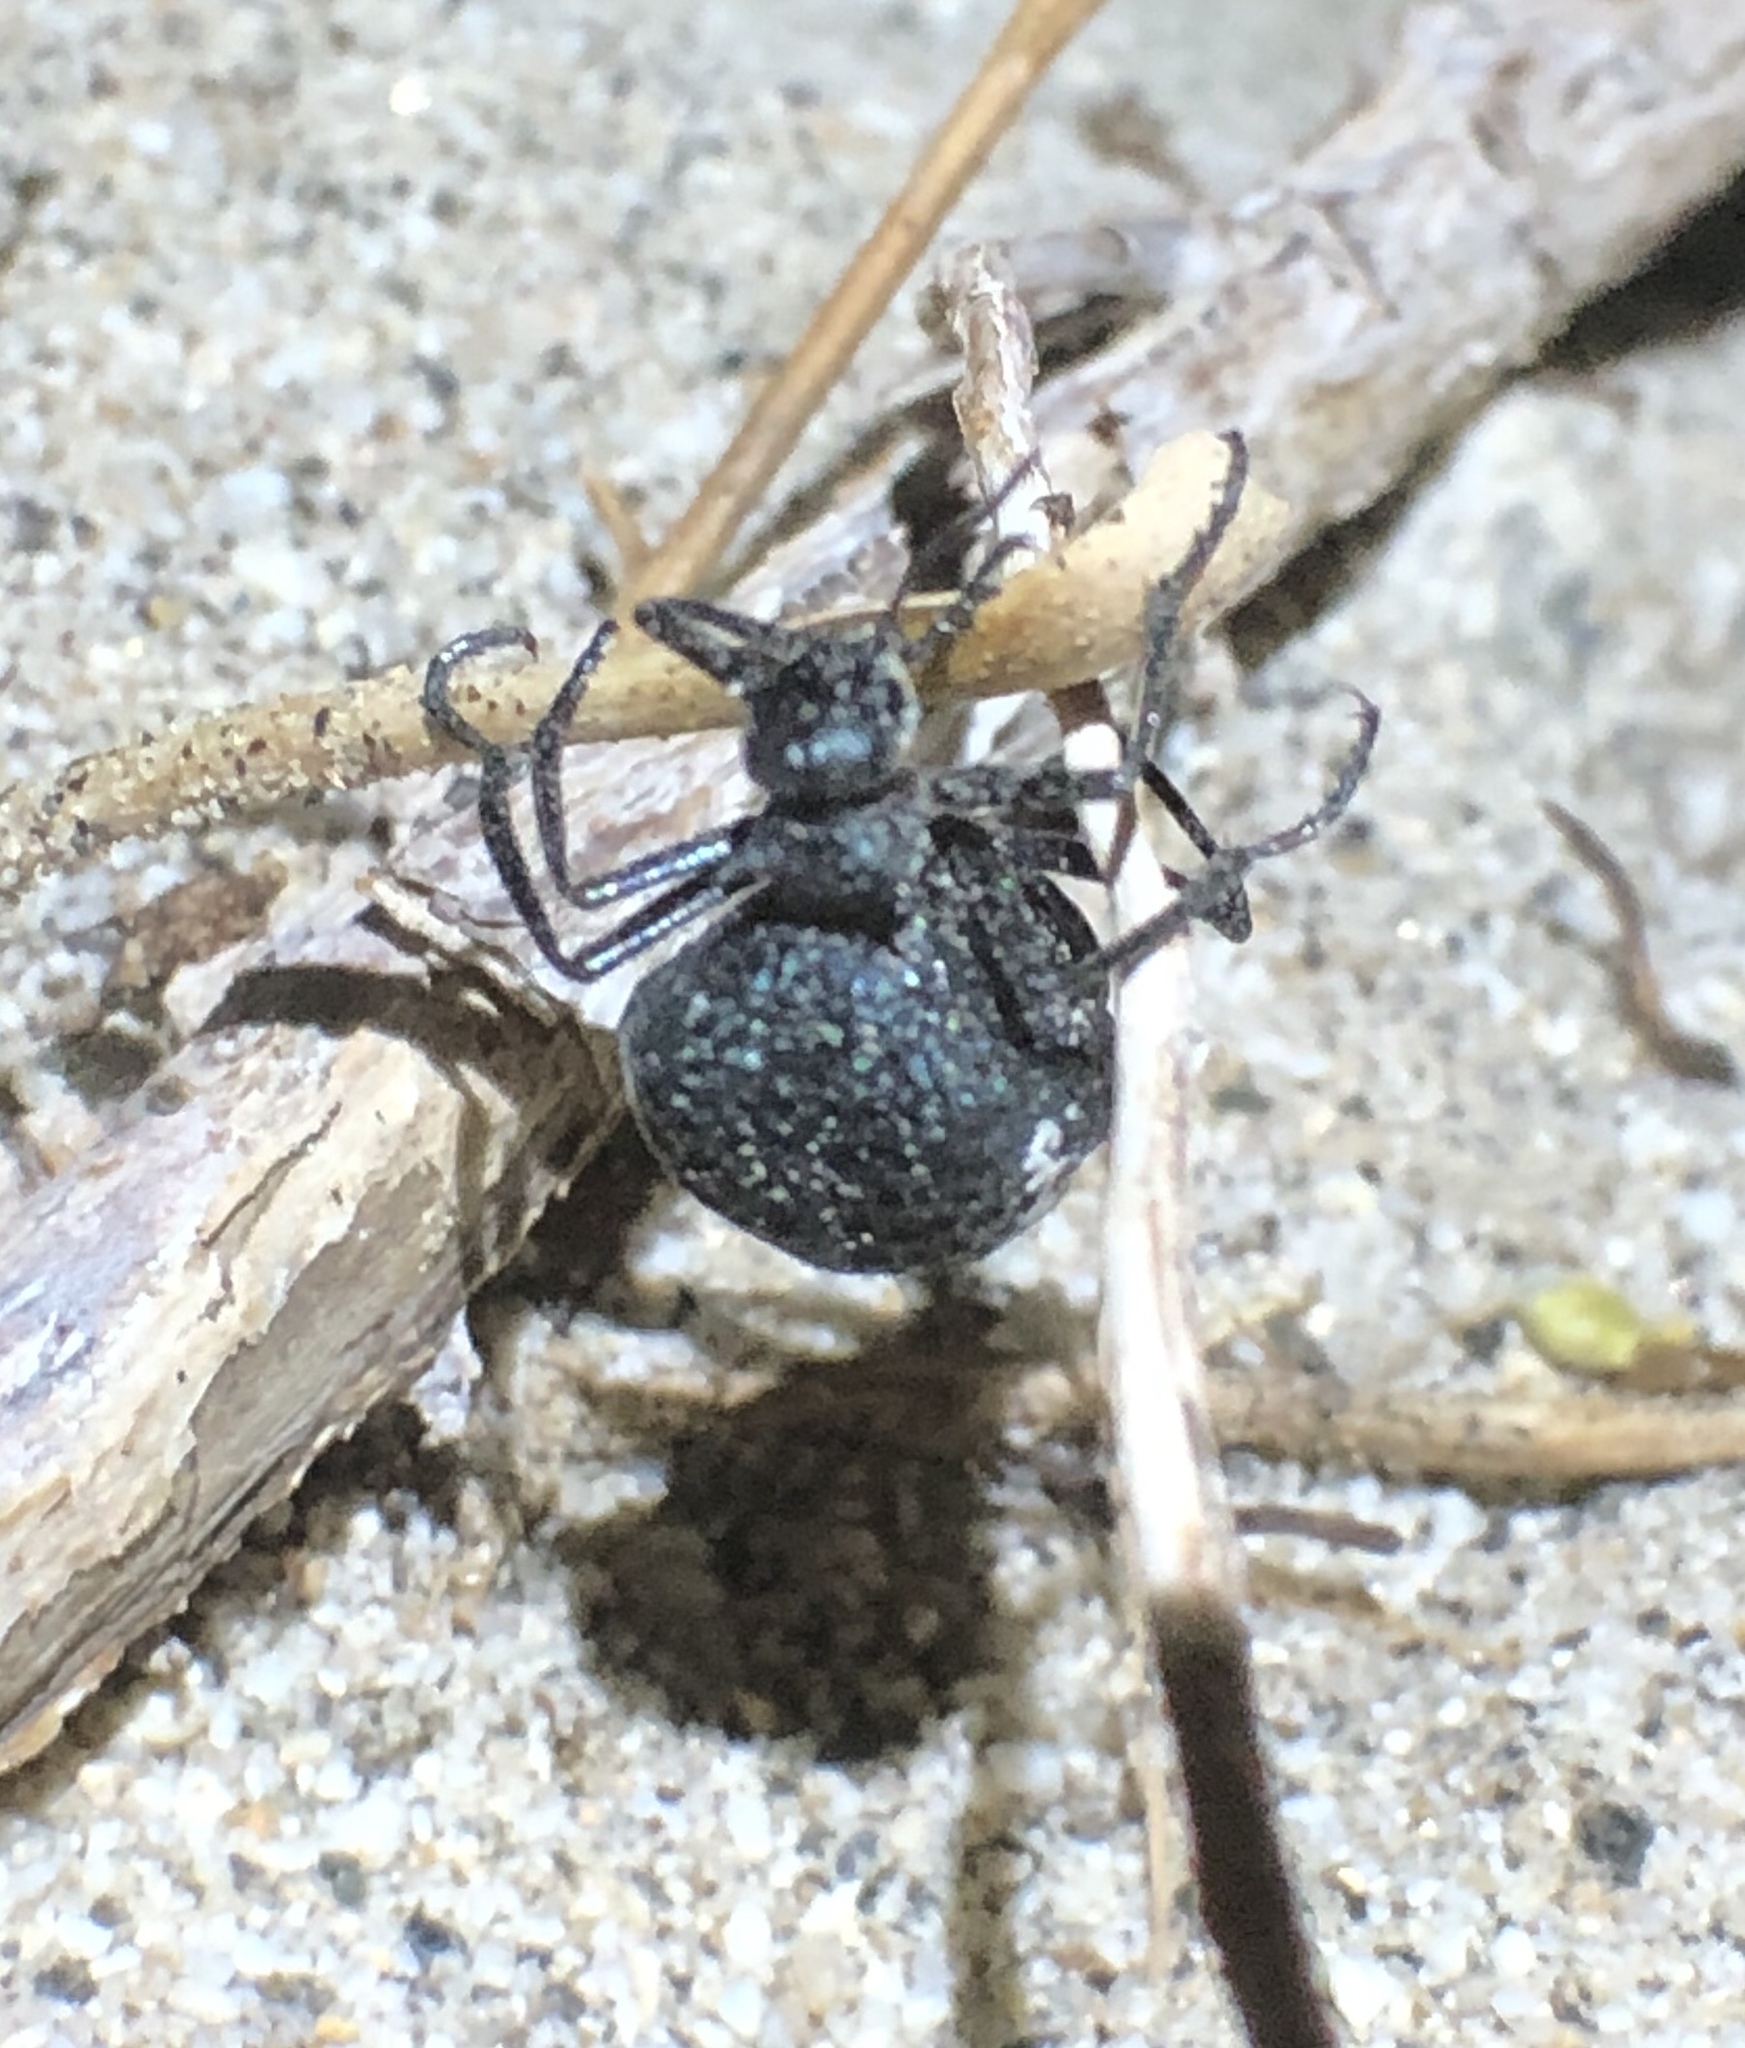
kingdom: Animalia
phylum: Arthropoda
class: Insecta
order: Coleoptera
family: Meloidae
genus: Cysteodemus
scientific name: Cysteodemus armatus
